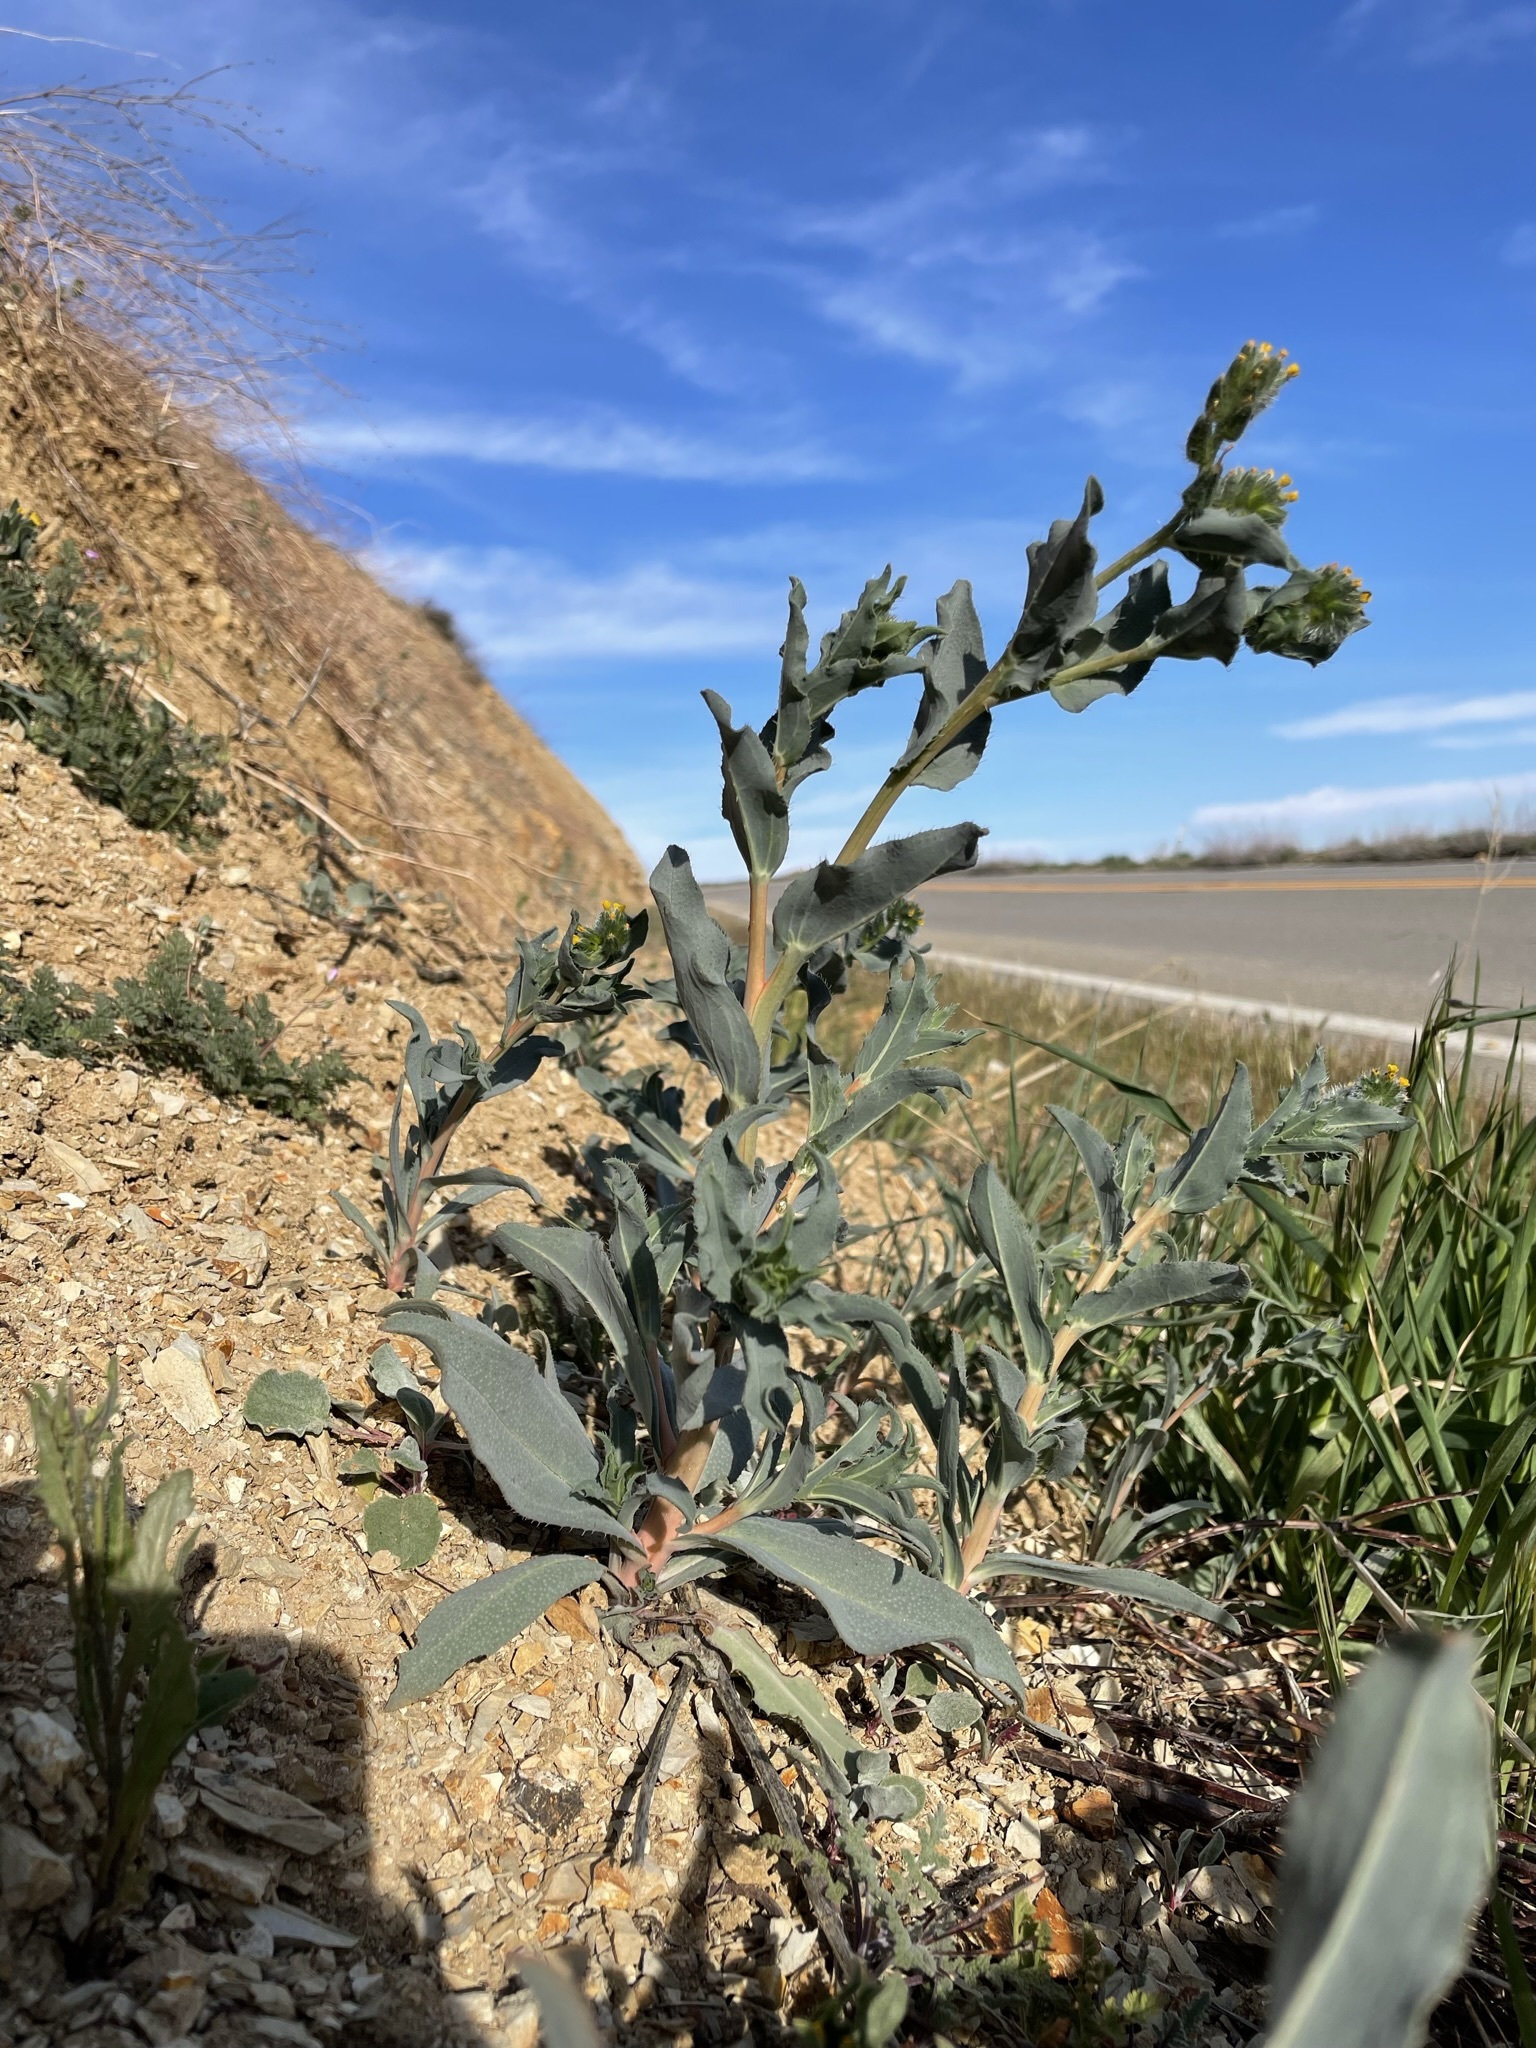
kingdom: Plantae
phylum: Tracheophyta
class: Magnoliopsida
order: Boraginales
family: Boraginaceae
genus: Amsinckia
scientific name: Amsinckia vernicosa
